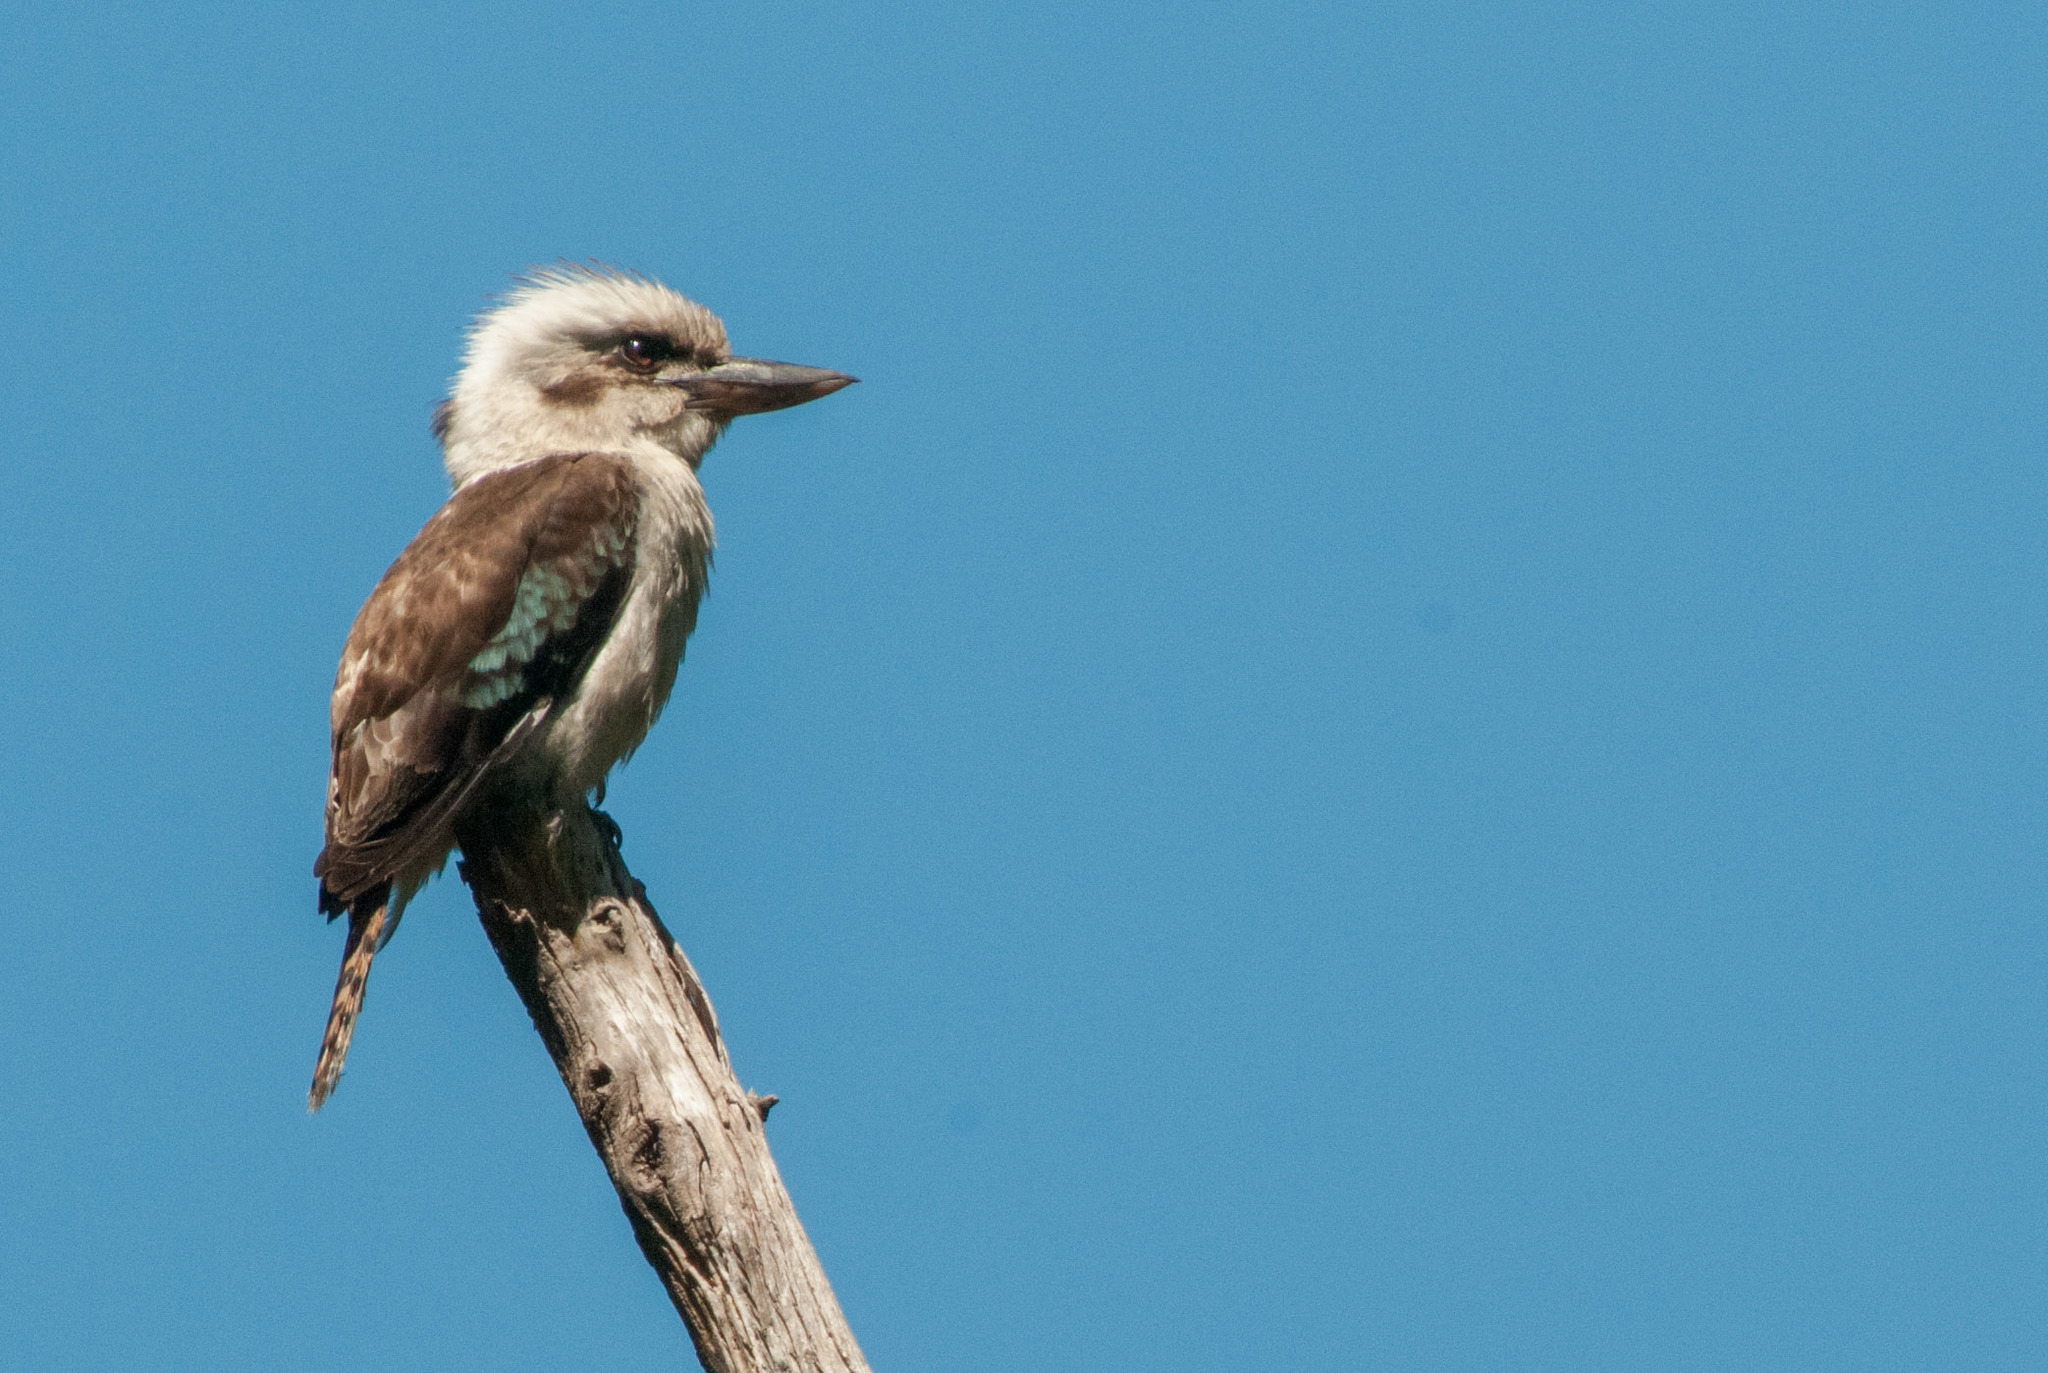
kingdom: Animalia
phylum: Chordata
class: Aves
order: Coraciiformes
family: Alcedinidae
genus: Dacelo
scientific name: Dacelo novaeguineae
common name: Laughing kookaburra
